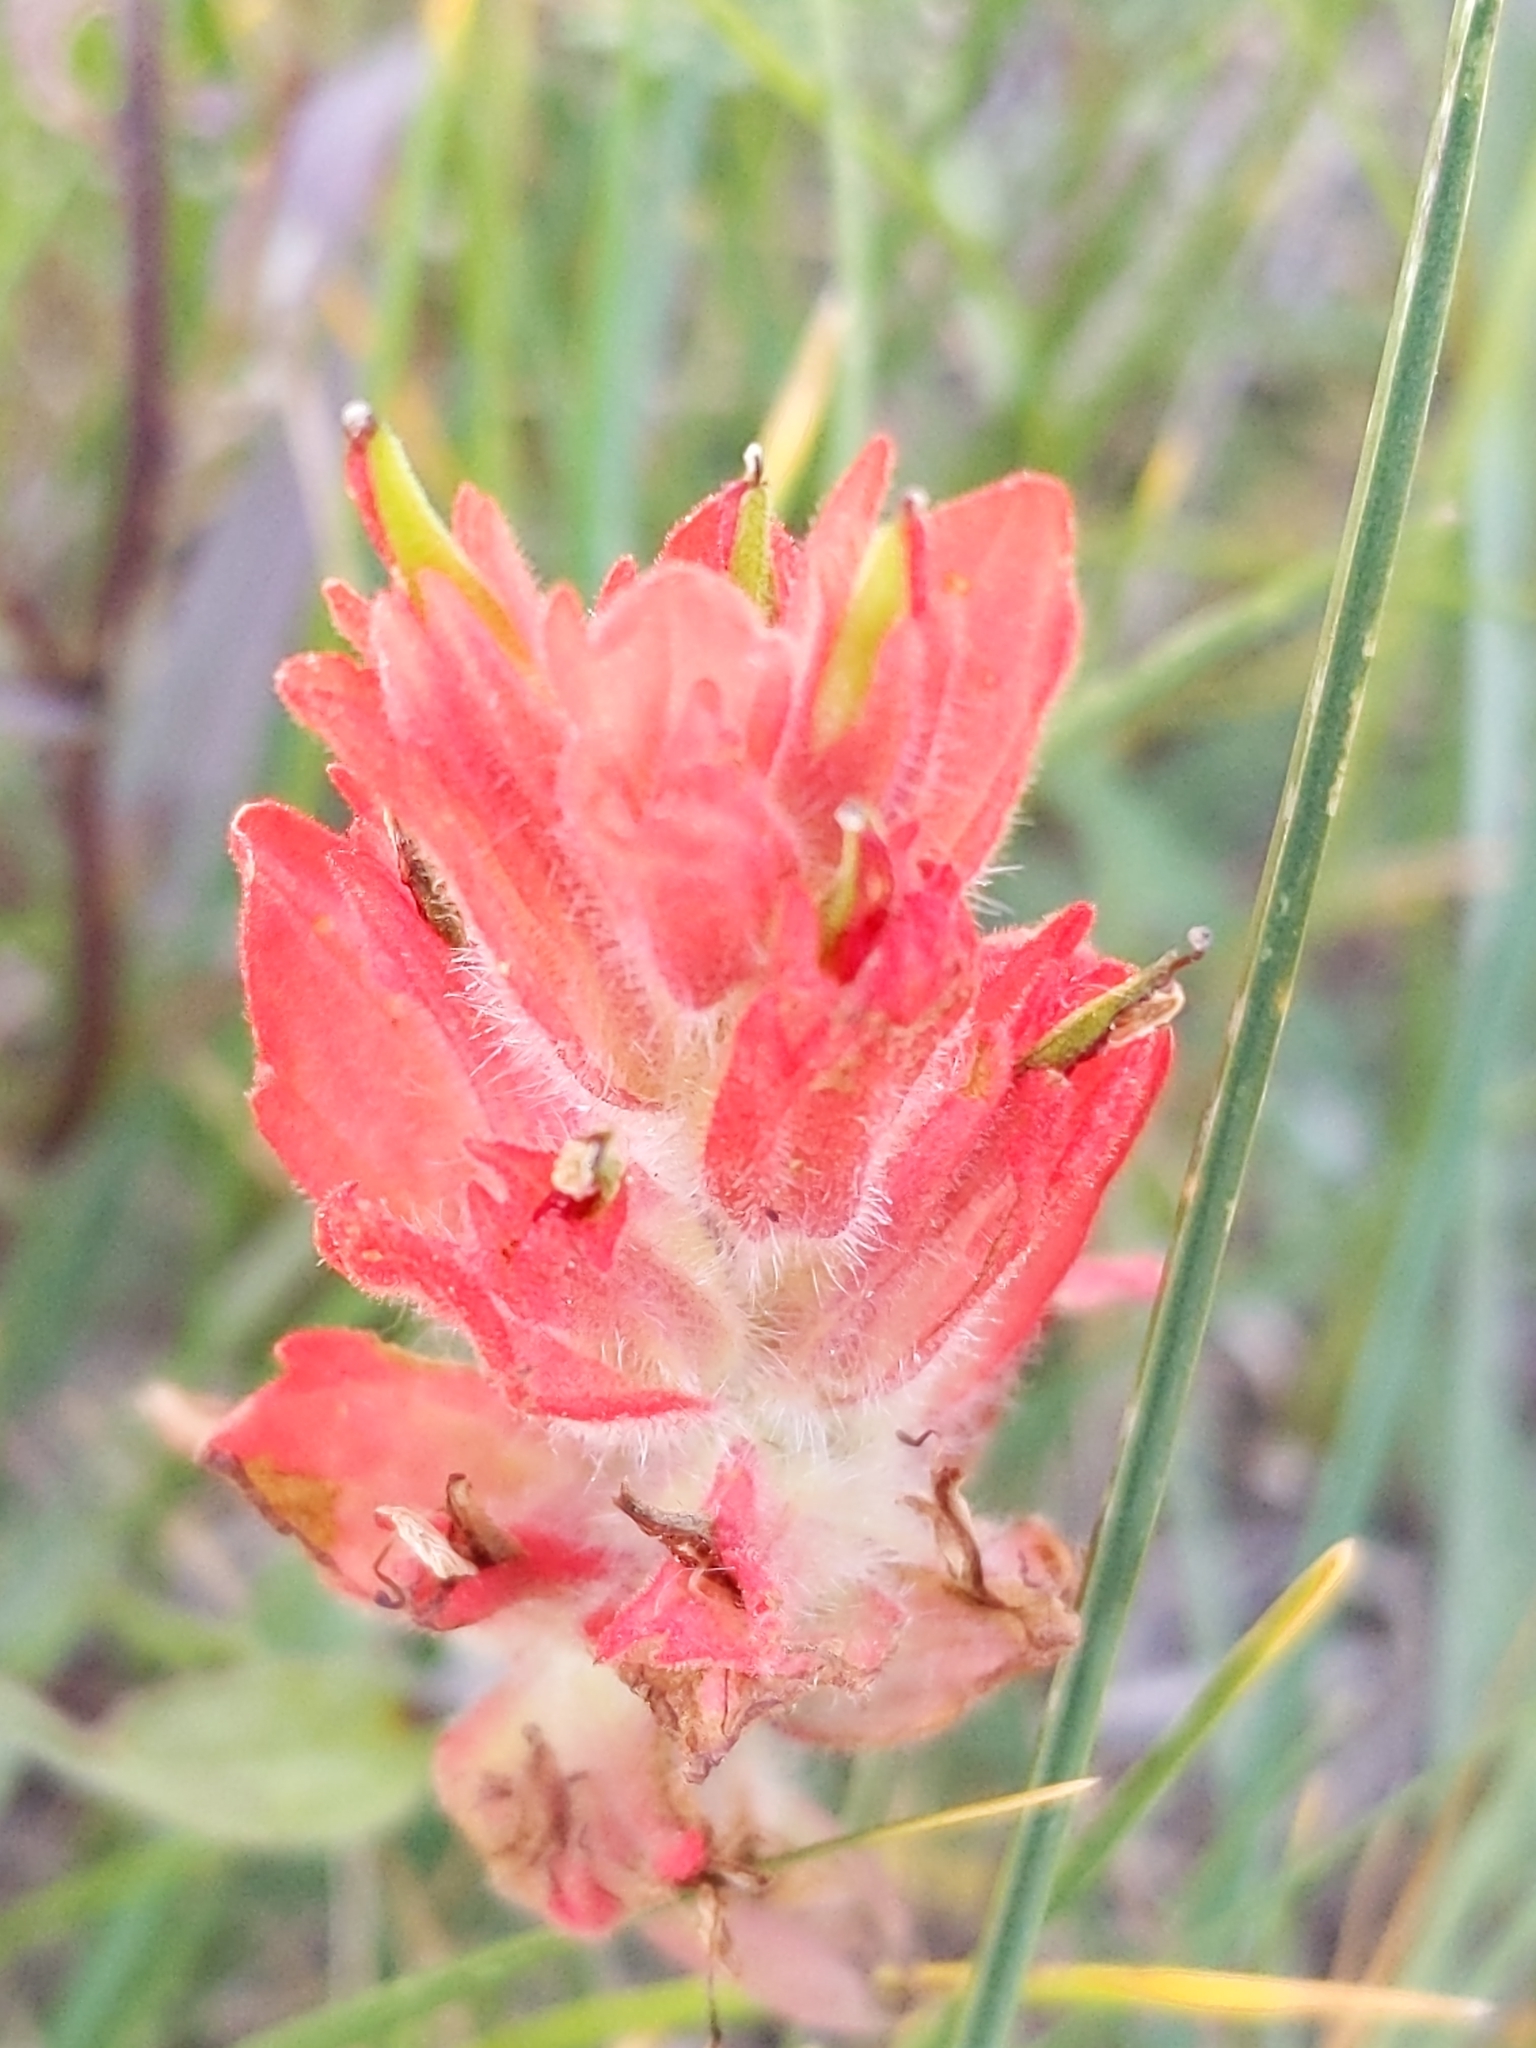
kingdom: Plantae
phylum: Tracheophyta
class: Magnoliopsida
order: Lamiales
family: Orobanchaceae
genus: Castilleja
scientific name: Castilleja miniata
